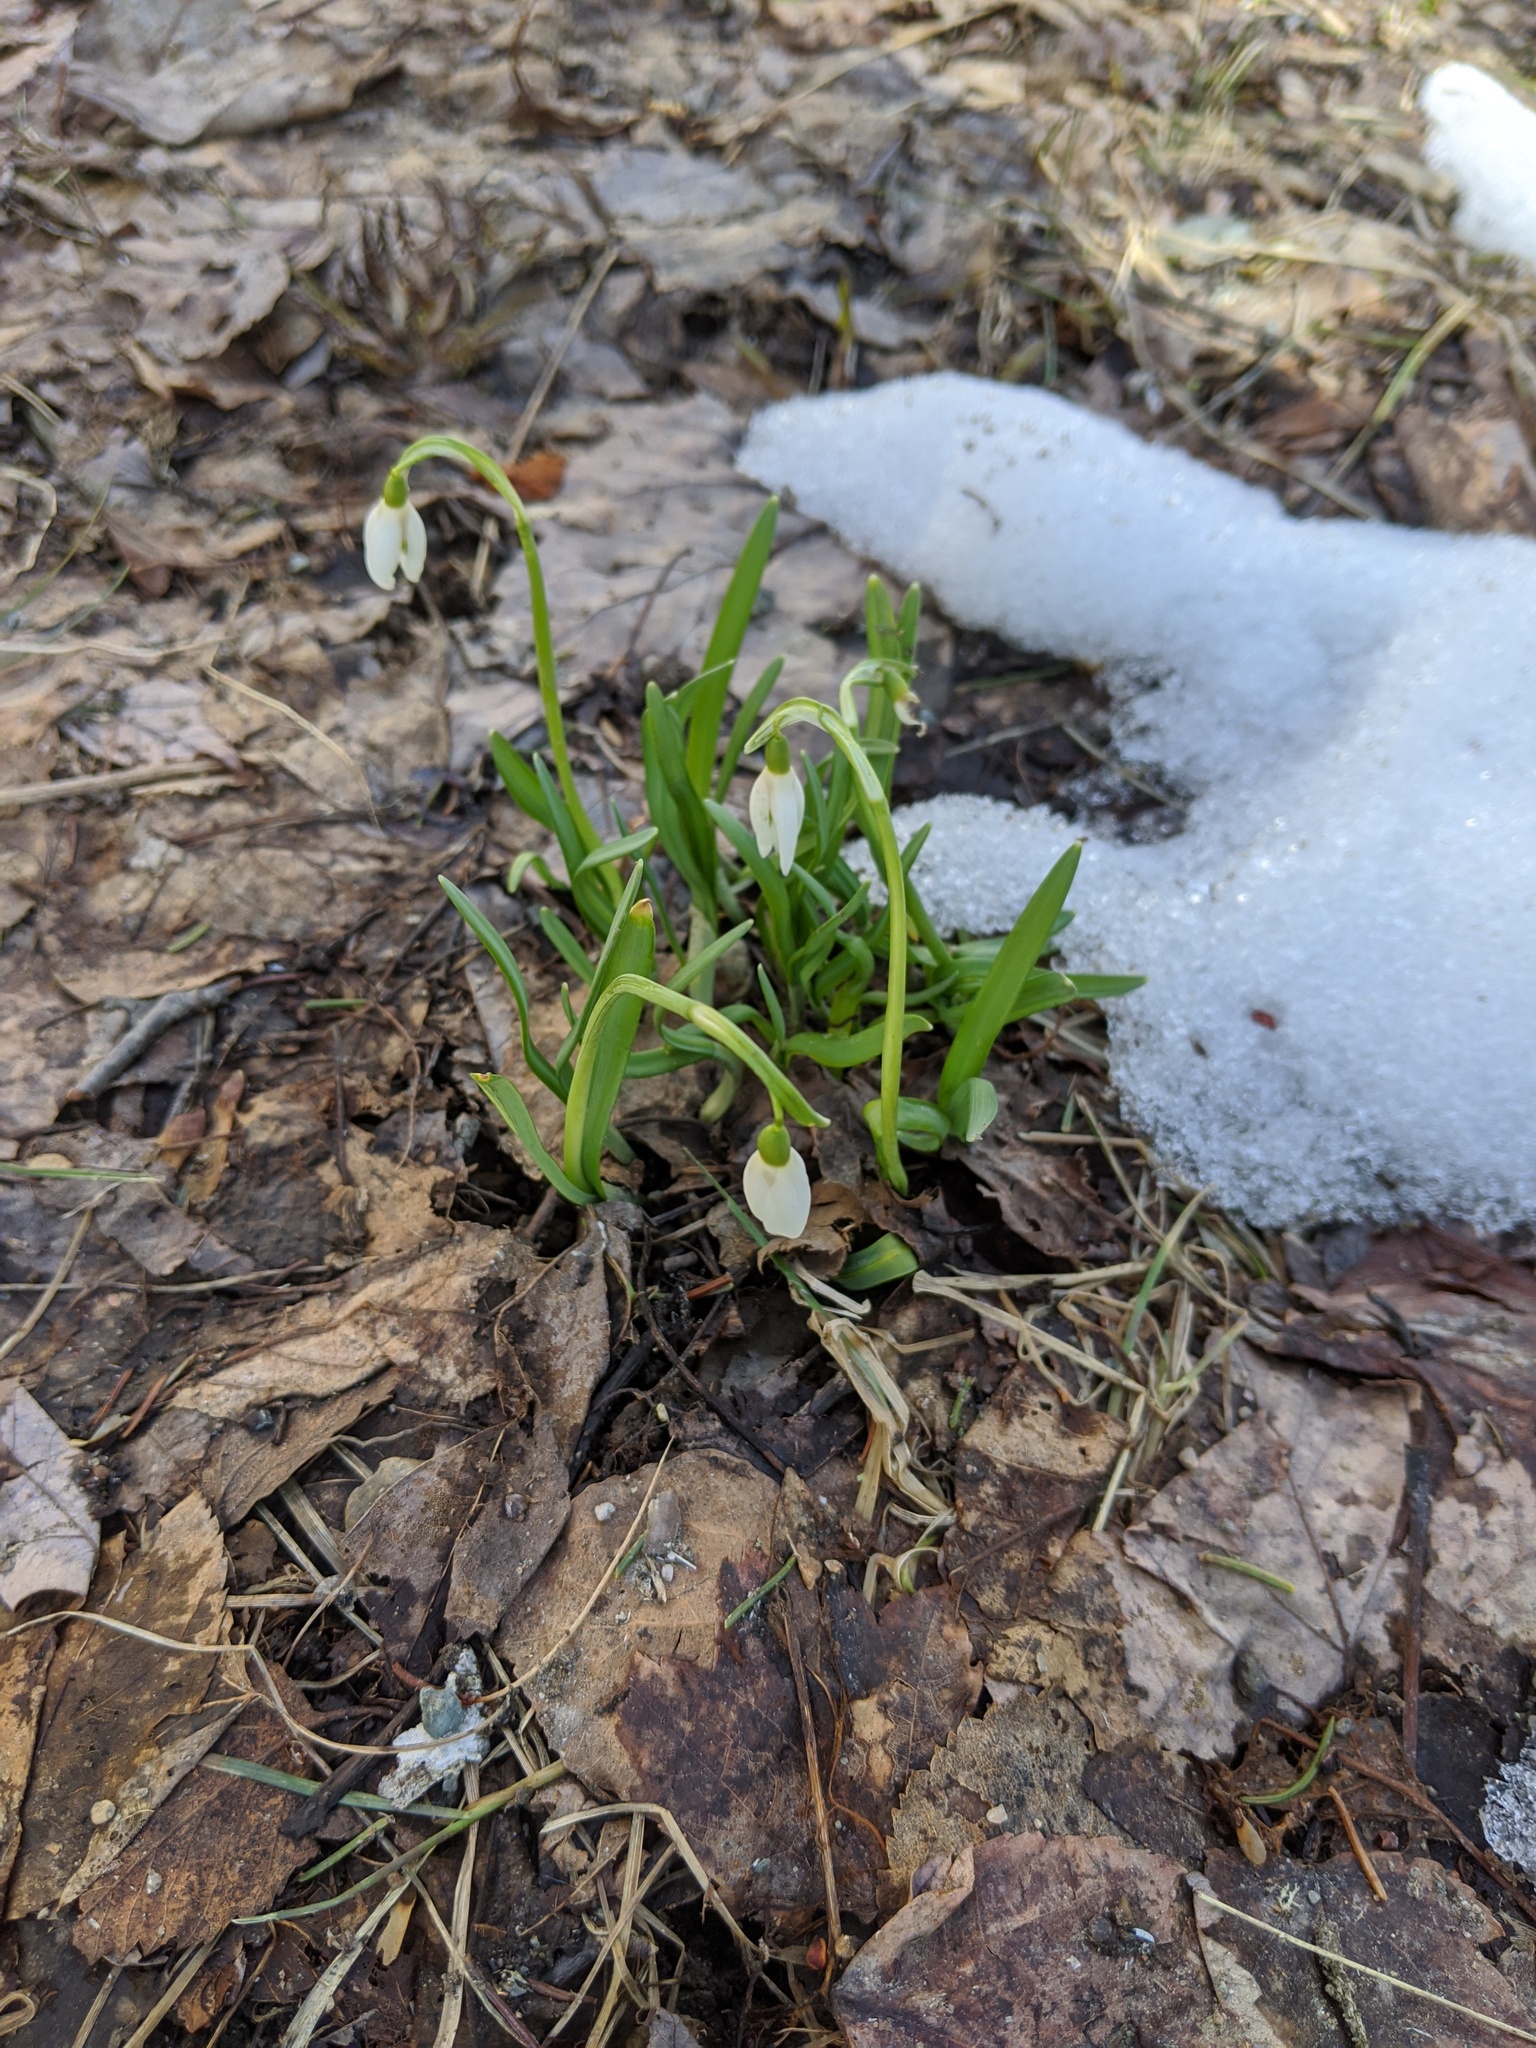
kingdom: Plantae
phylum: Tracheophyta
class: Liliopsida
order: Asparagales
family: Amaryllidaceae
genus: Galanthus
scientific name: Galanthus nivalis
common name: Snowdrop
